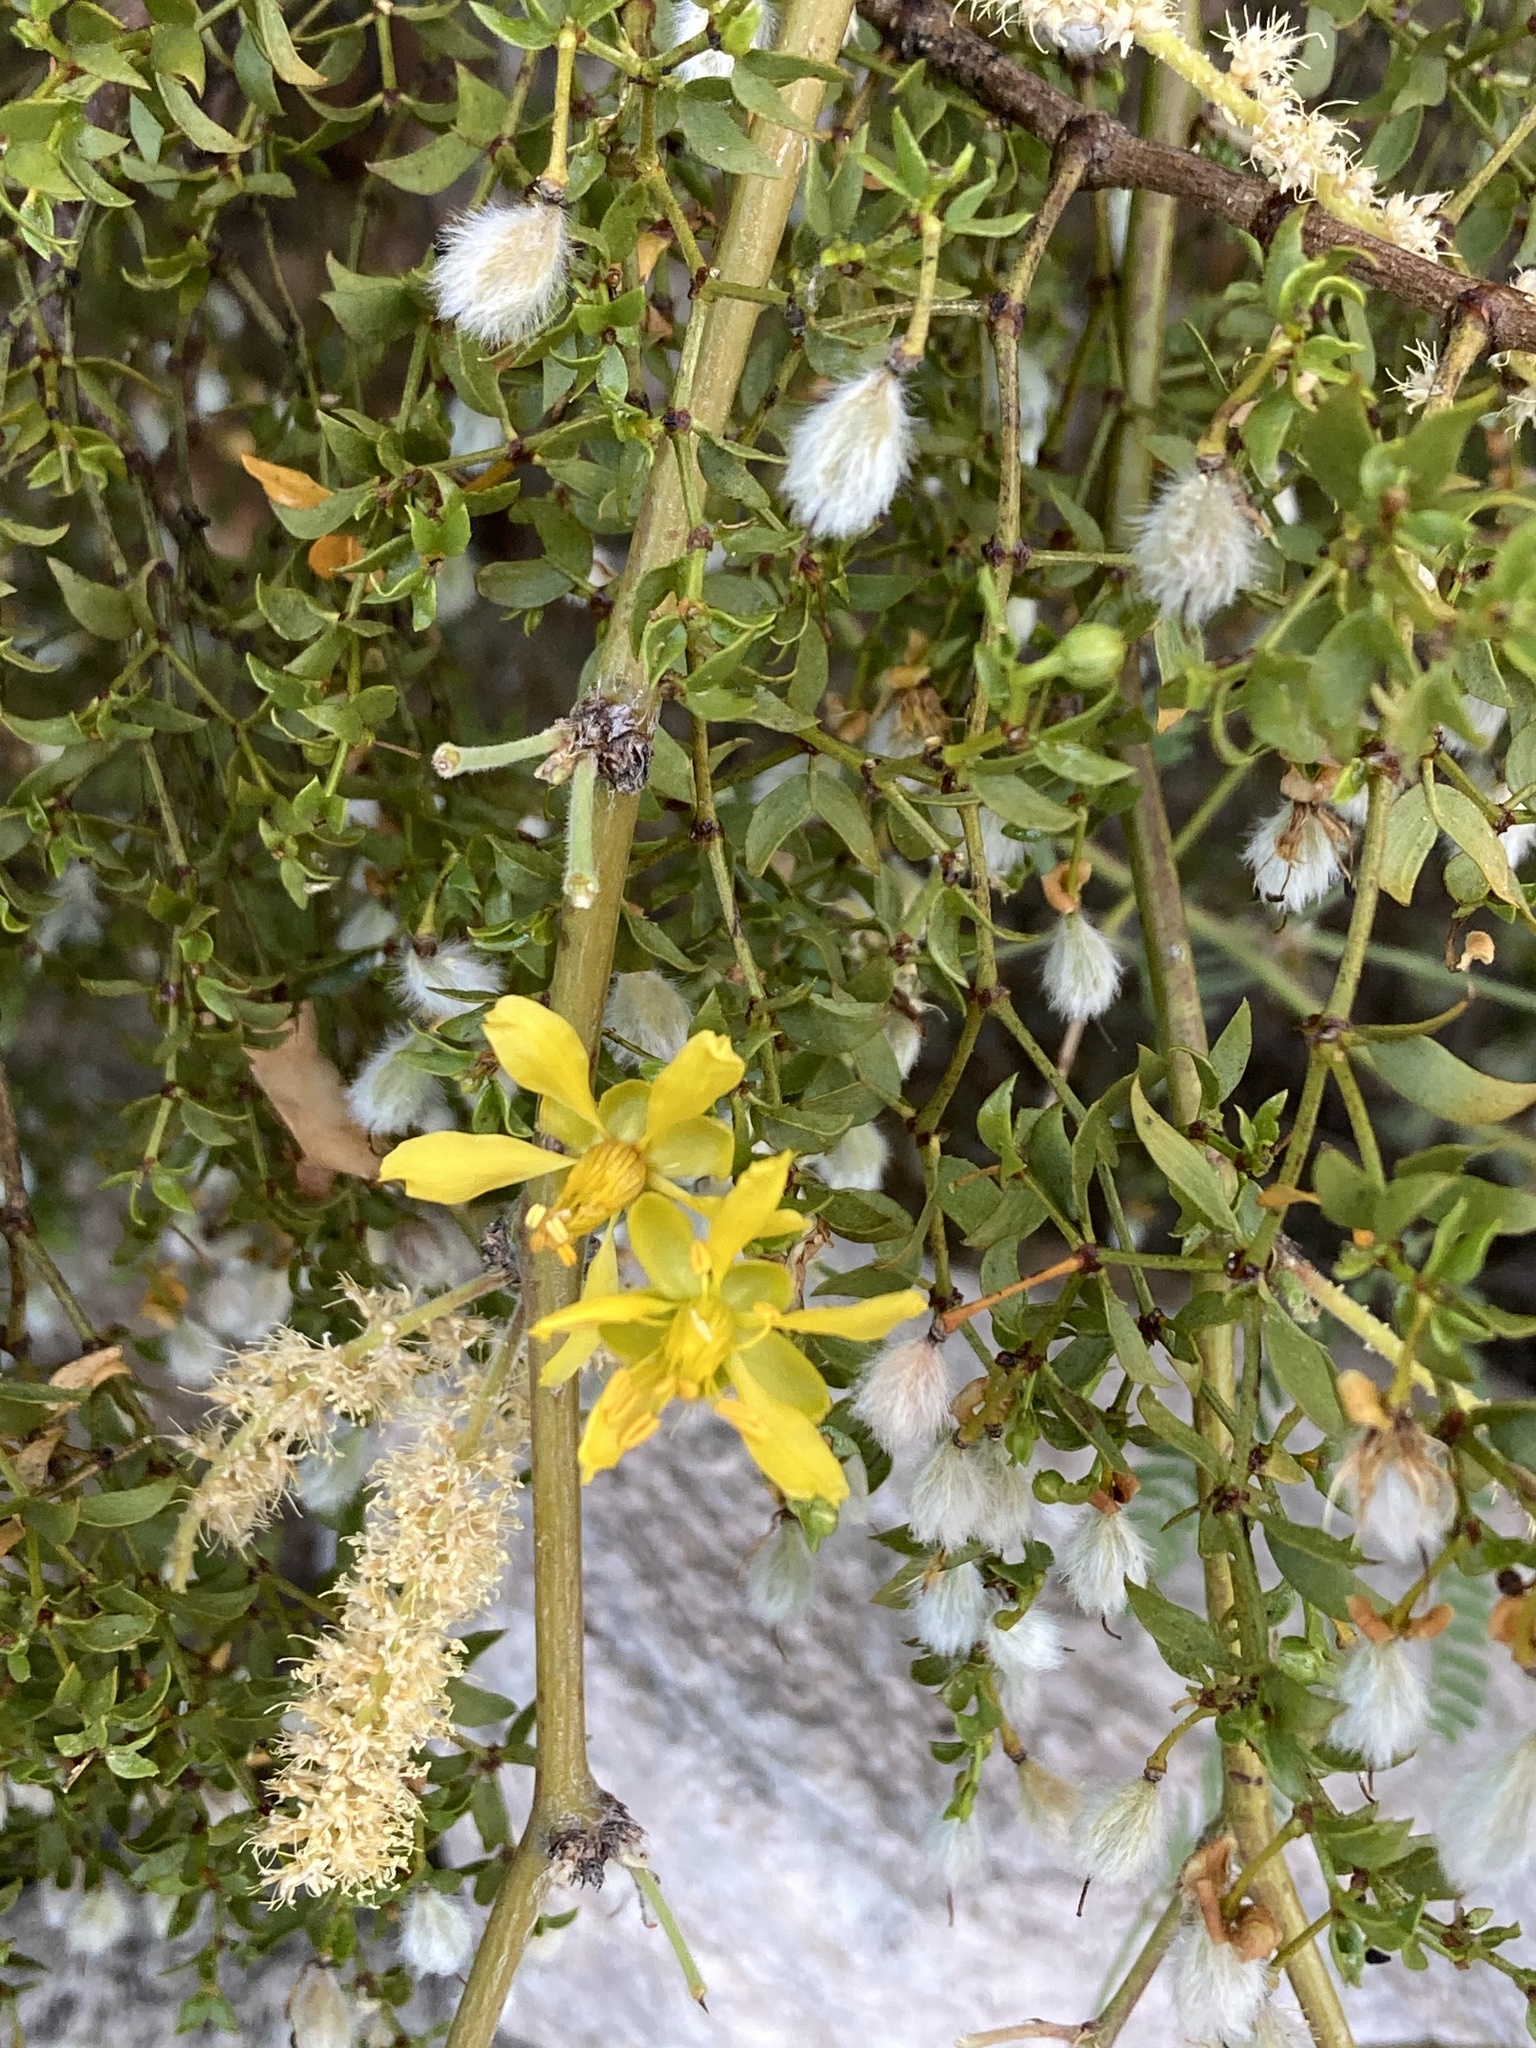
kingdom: Plantae
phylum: Tracheophyta
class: Magnoliopsida
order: Zygophyllales
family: Zygophyllaceae
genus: Larrea
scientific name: Larrea tridentata
